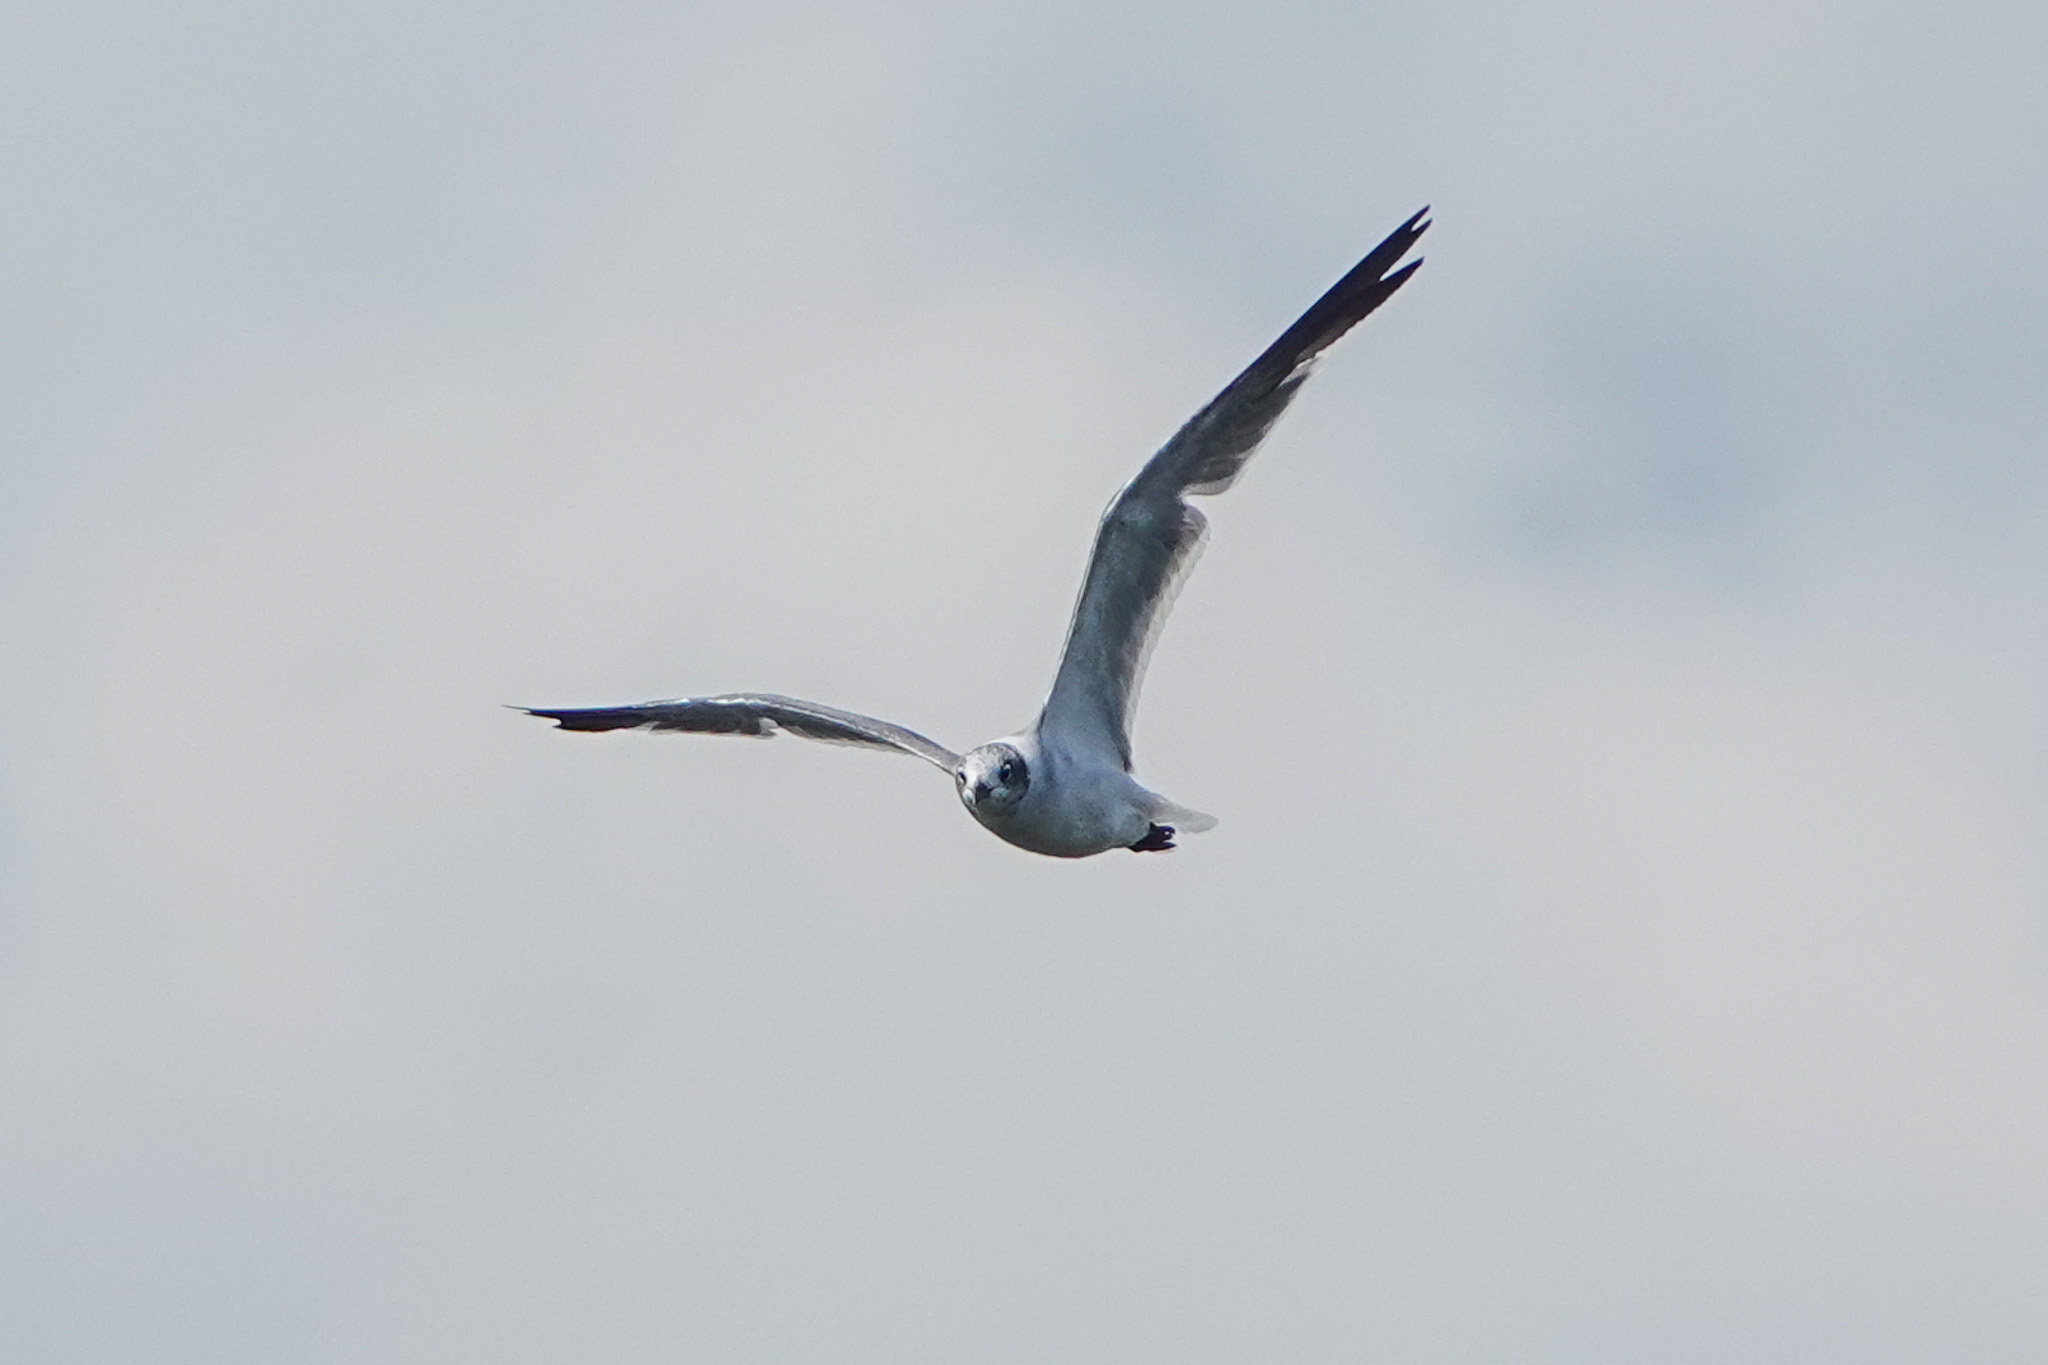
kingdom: Animalia
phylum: Chordata
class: Aves
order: Charadriiformes
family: Laridae
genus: Leucophaeus
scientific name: Leucophaeus atricilla
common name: Laughing gull
